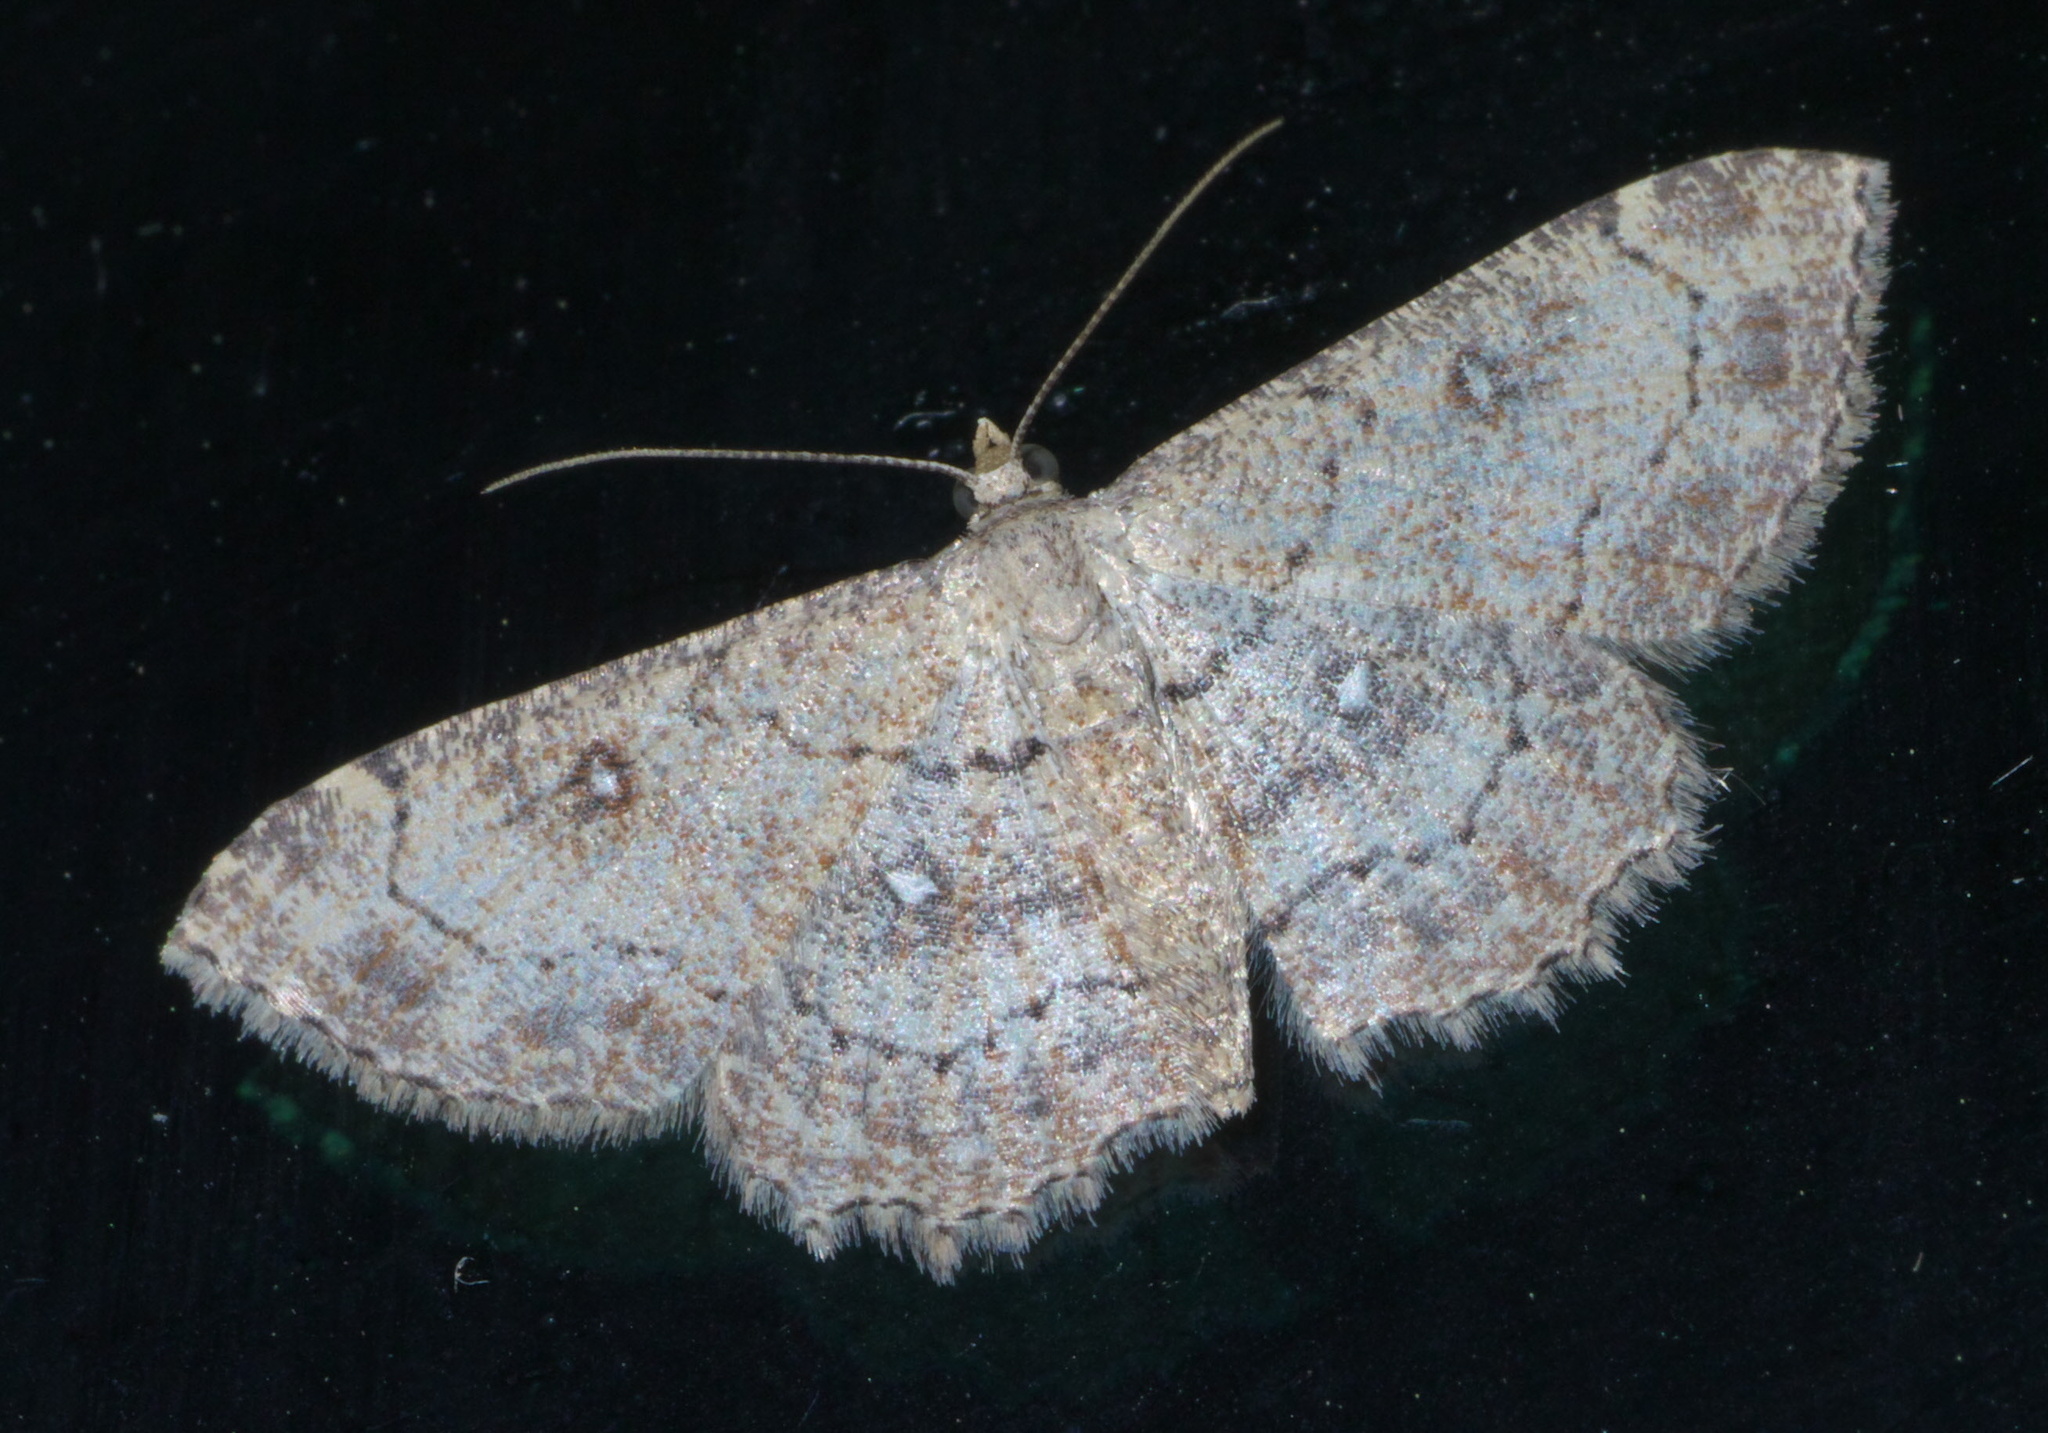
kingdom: Animalia
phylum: Arthropoda
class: Insecta
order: Lepidoptera
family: Geometridae
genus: Cyclophora
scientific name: Cyclophora nanaria
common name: Cankerworm
